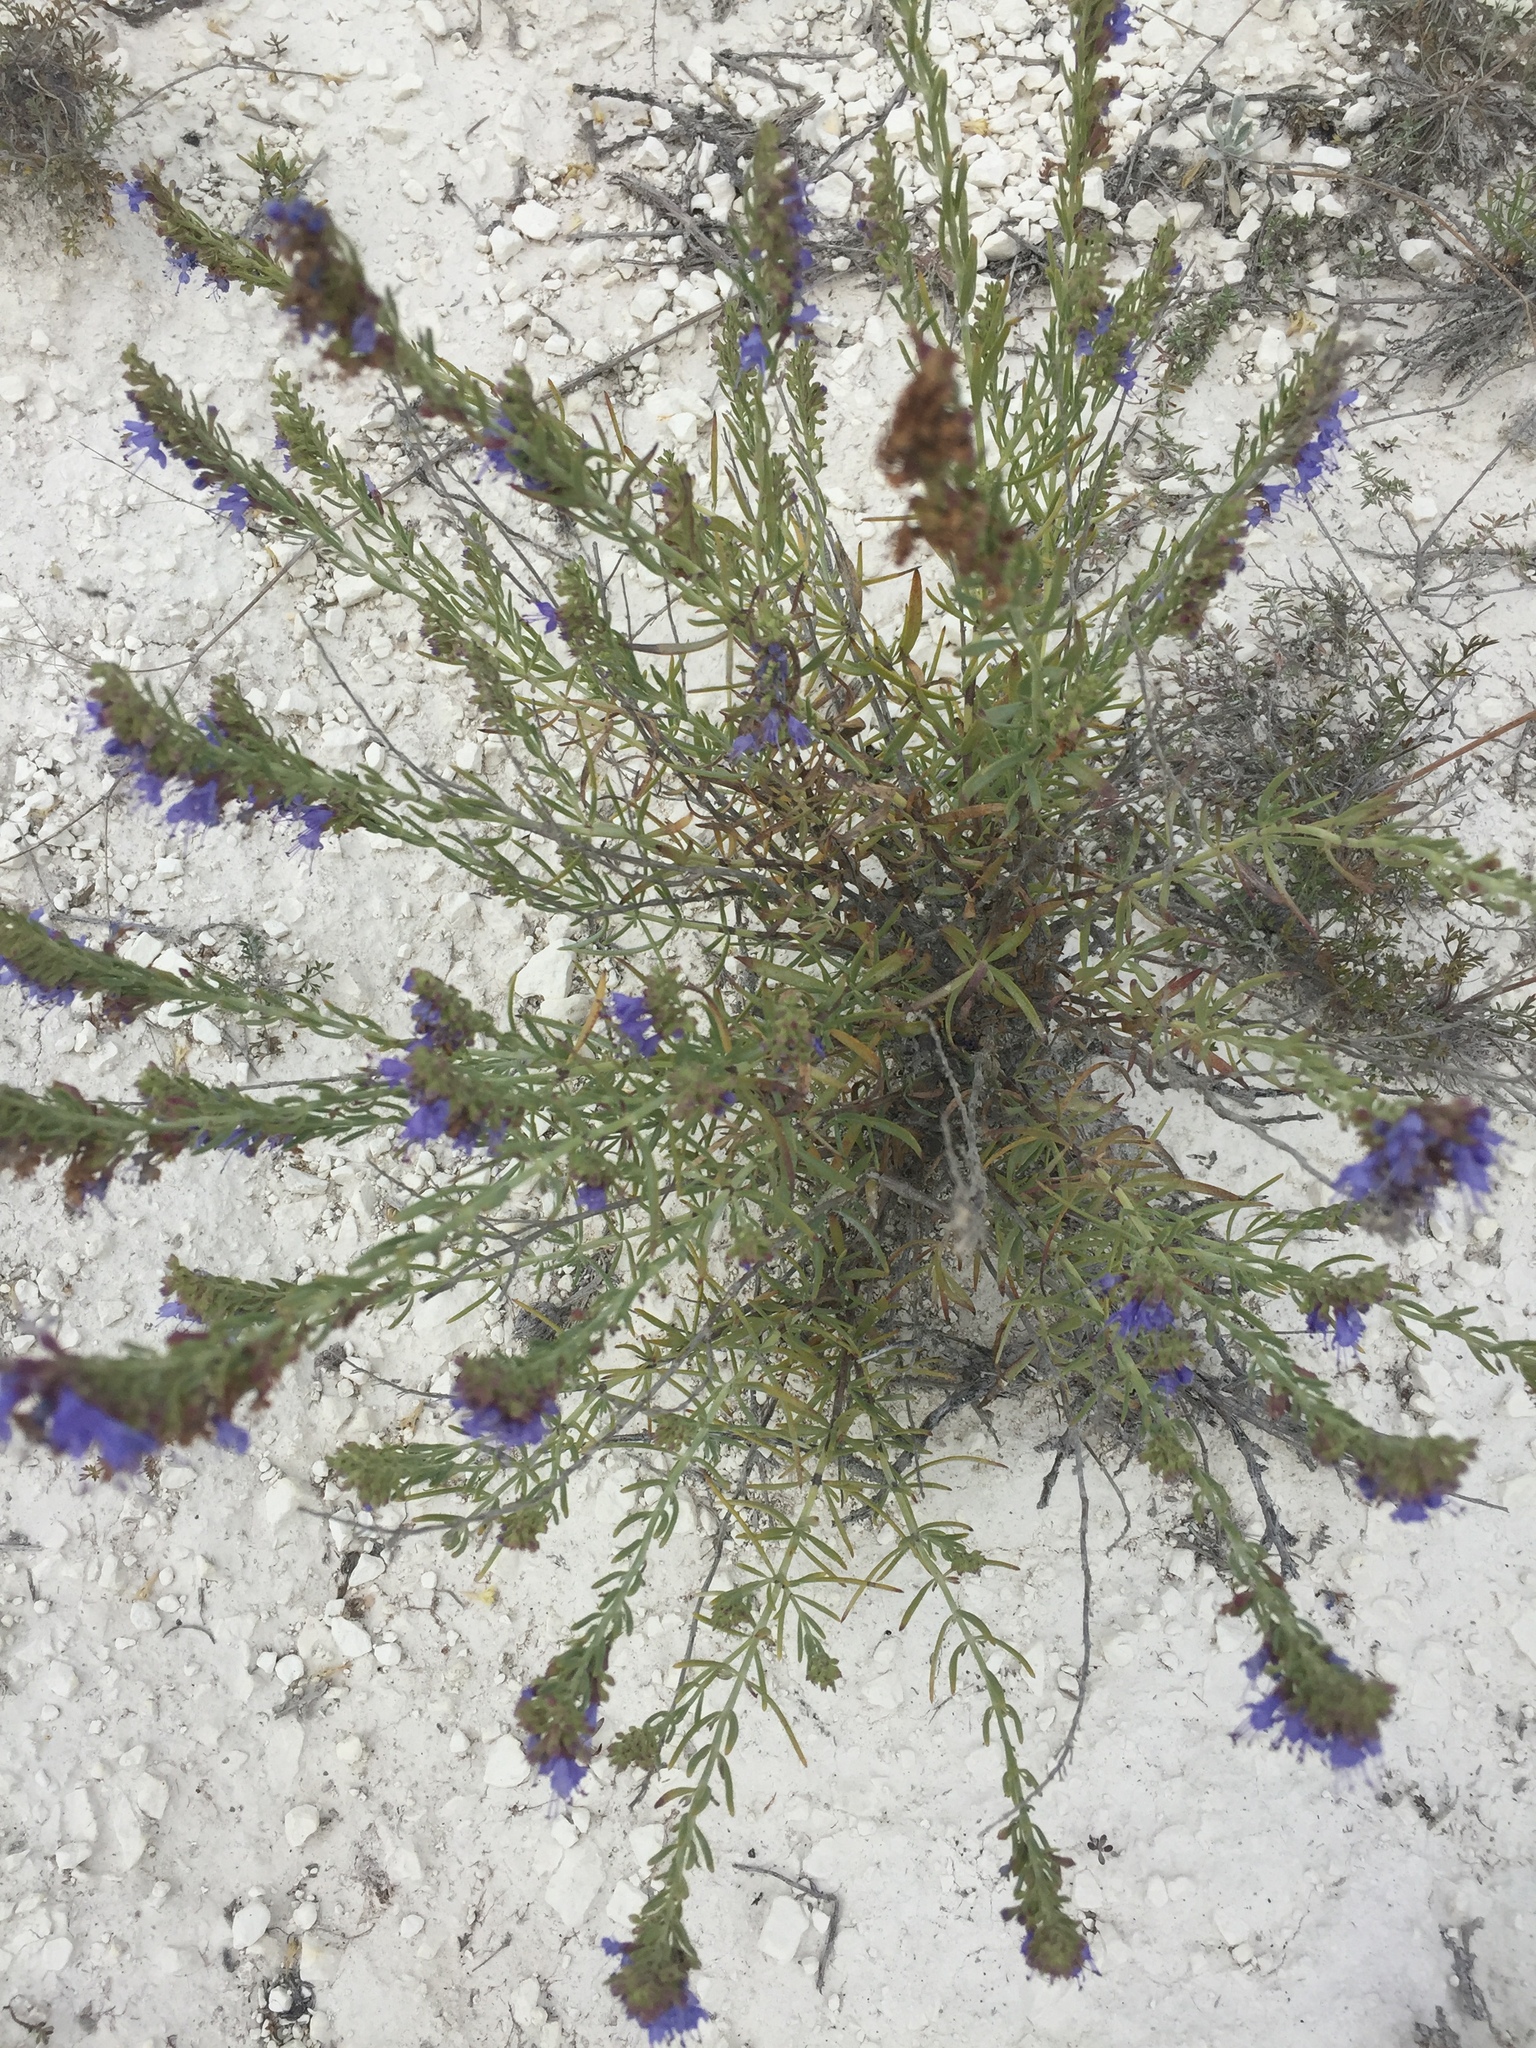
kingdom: Plantae
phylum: Tracheophyta
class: Magnoliopsida
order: Lamiales
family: Lamiaceae
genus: Hyssopus
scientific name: Hyssopus officinalis
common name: Hyssop
